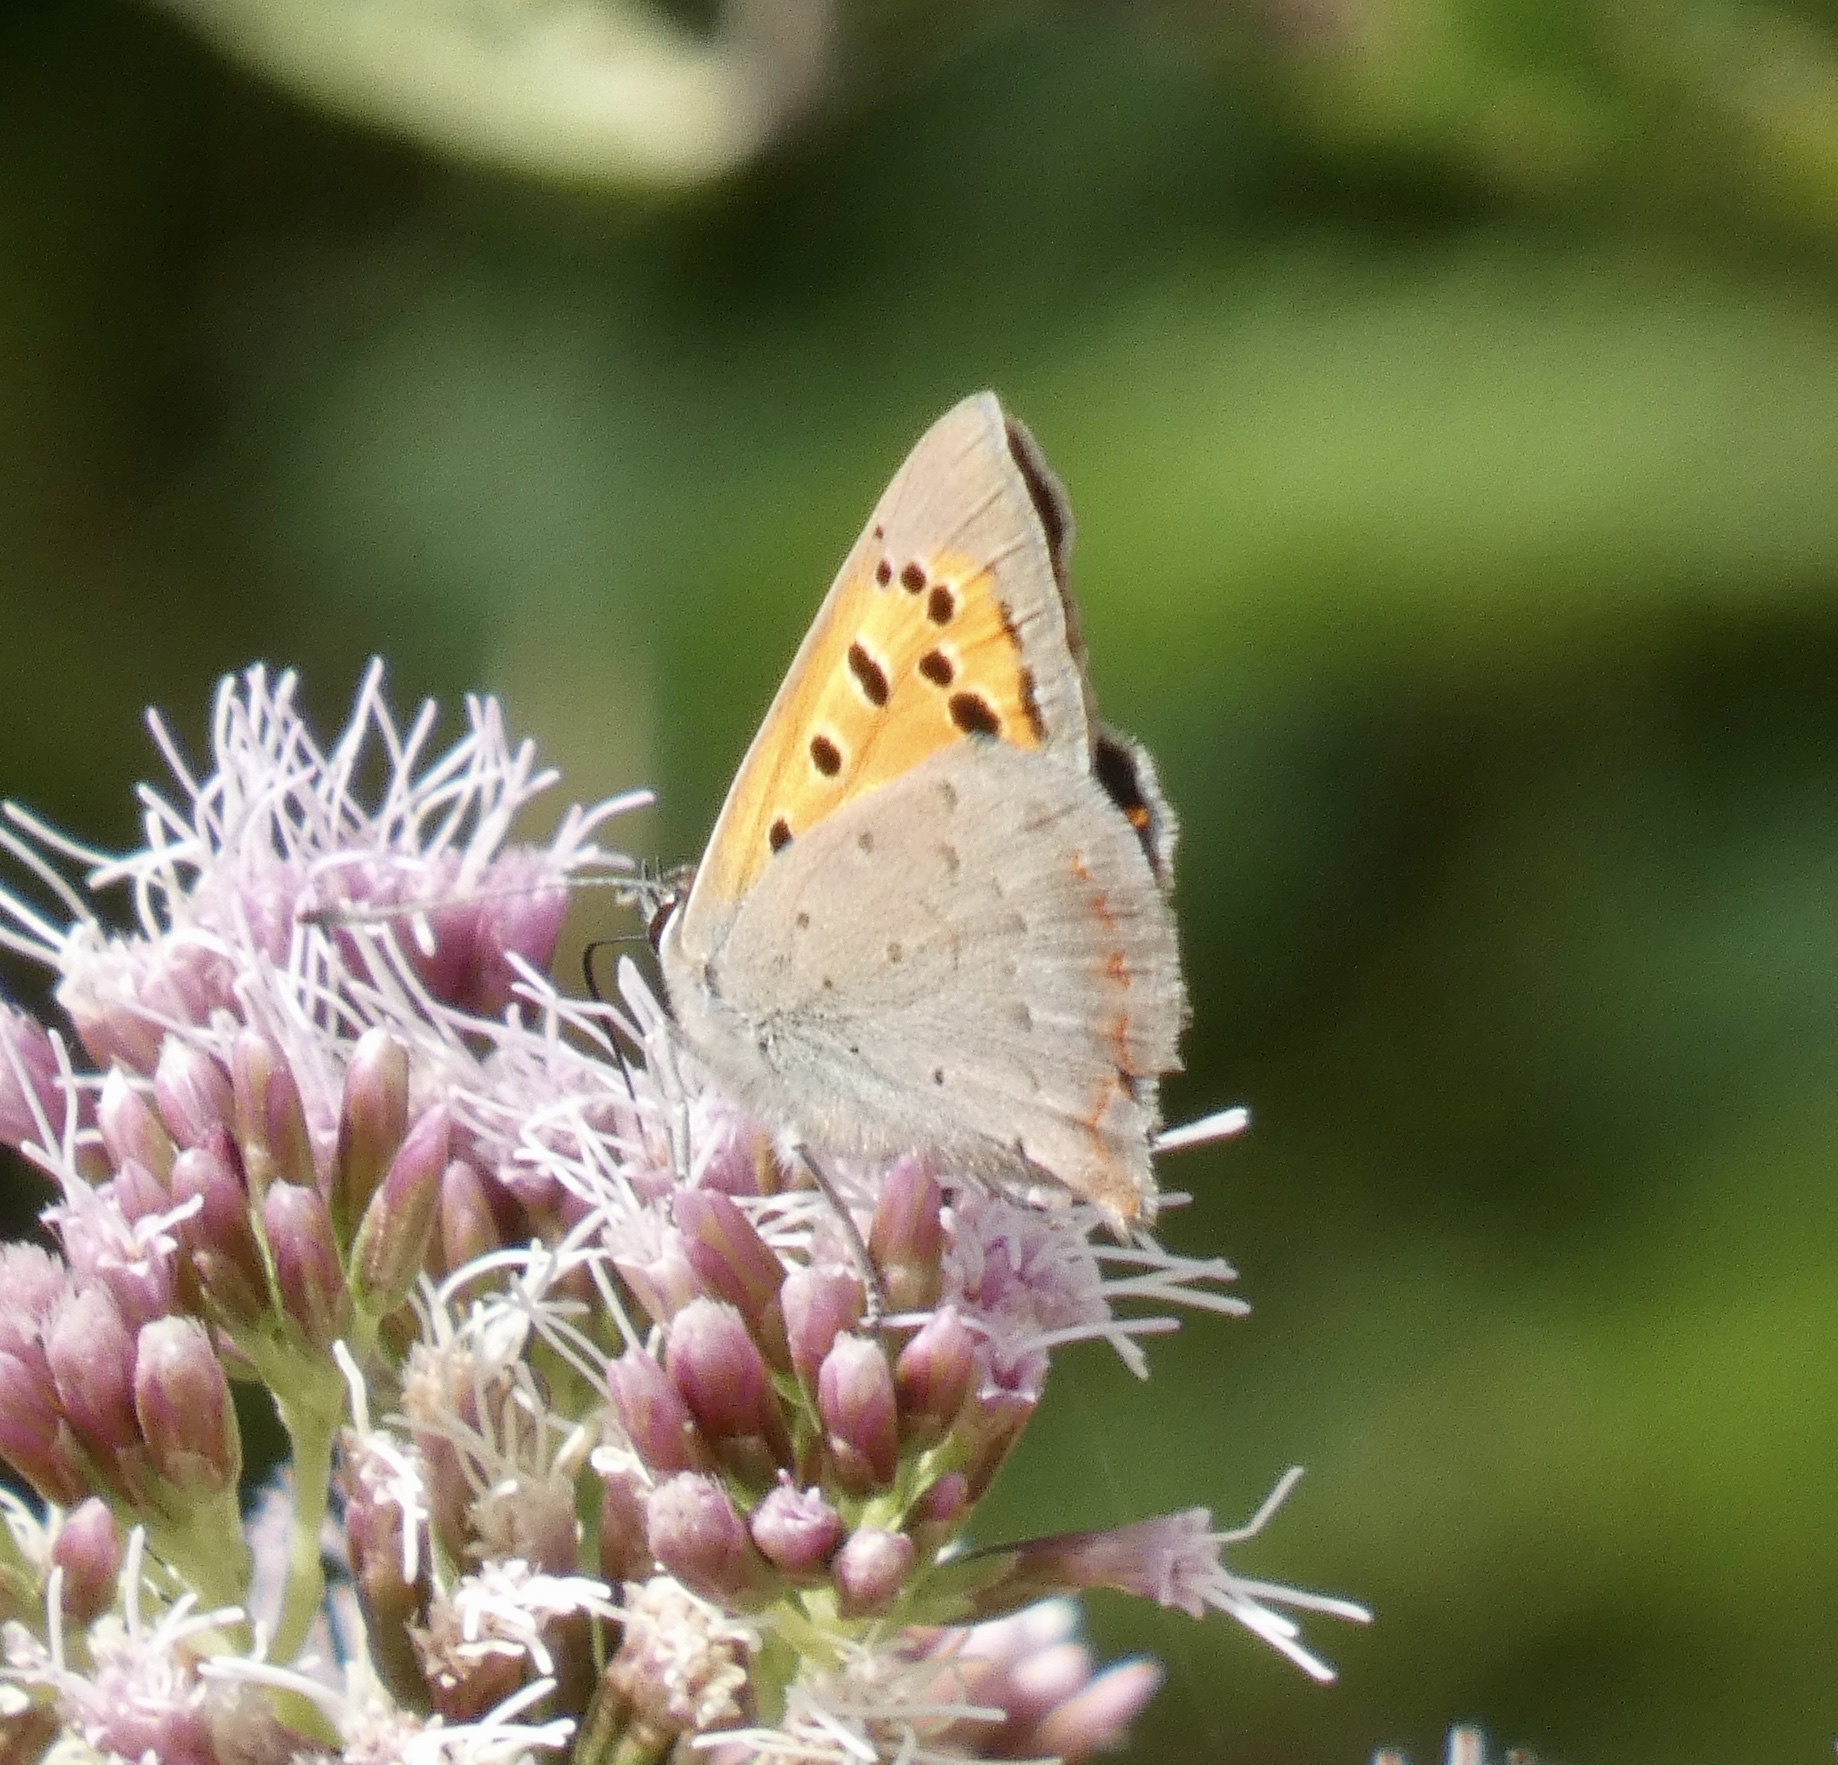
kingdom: Animalia
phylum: Arthropoda
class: Insecta
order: Lepidoptera
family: Lycaenidae
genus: Lycaena
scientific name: Lycaena phlaeas
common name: Small copper
